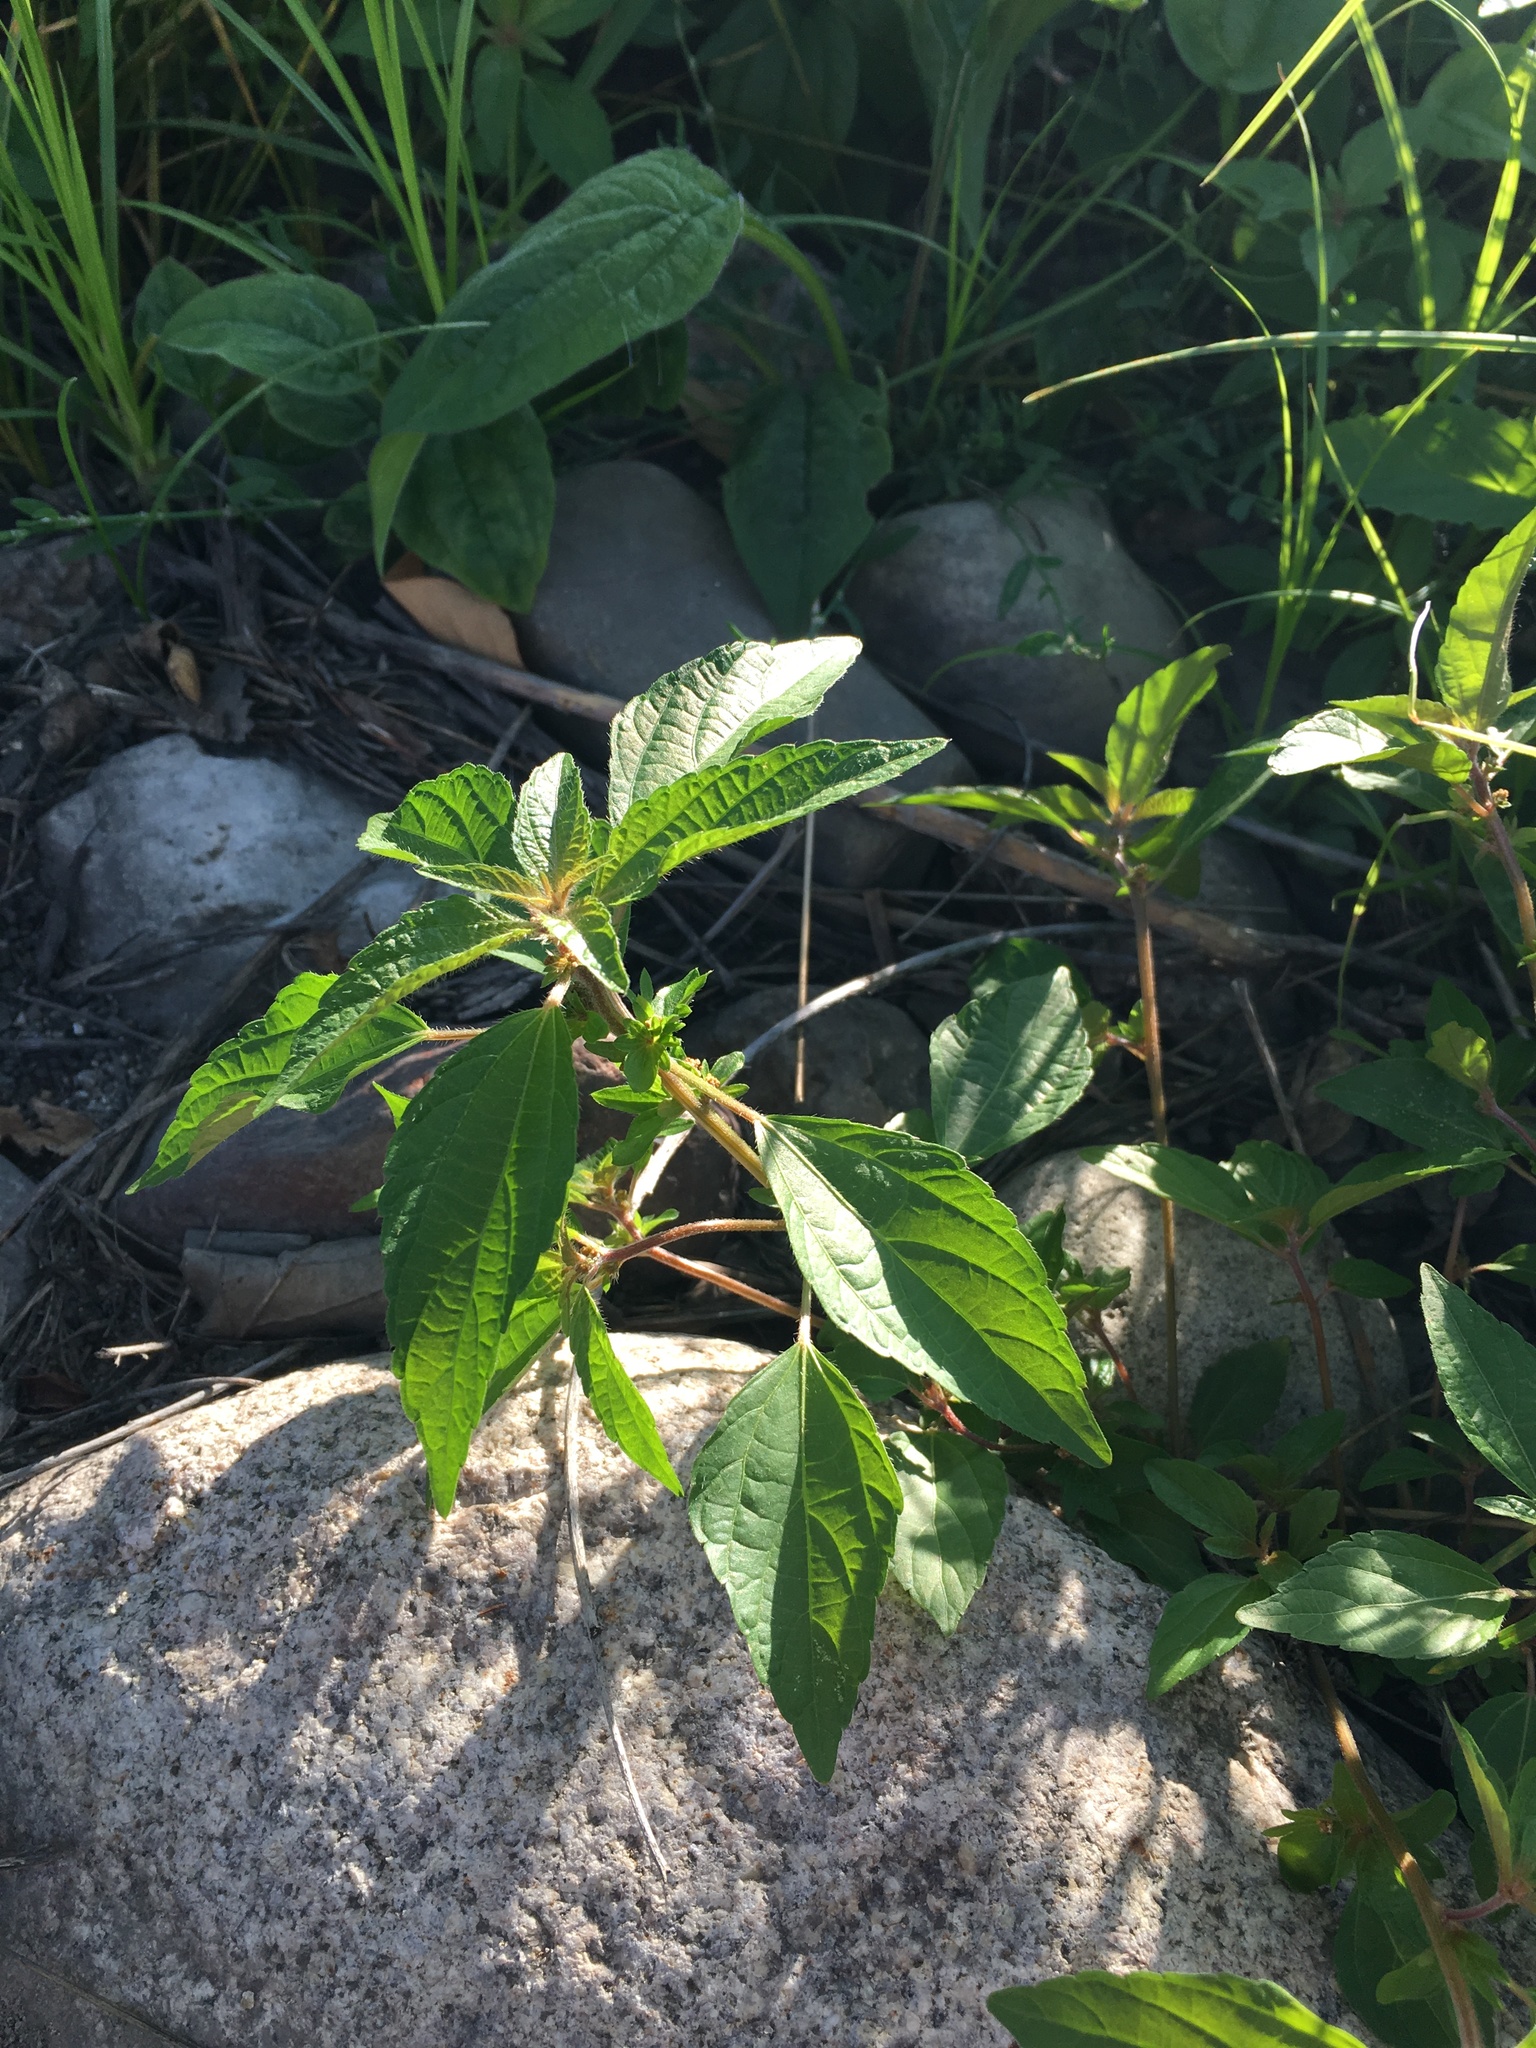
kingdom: Plantae
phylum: Tracheophyta
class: Magnoliopsida
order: Malpighiales
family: Euphorbiaceae
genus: Acalypha
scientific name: Acalypha rhomboidea
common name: Rhombic copperleaf
